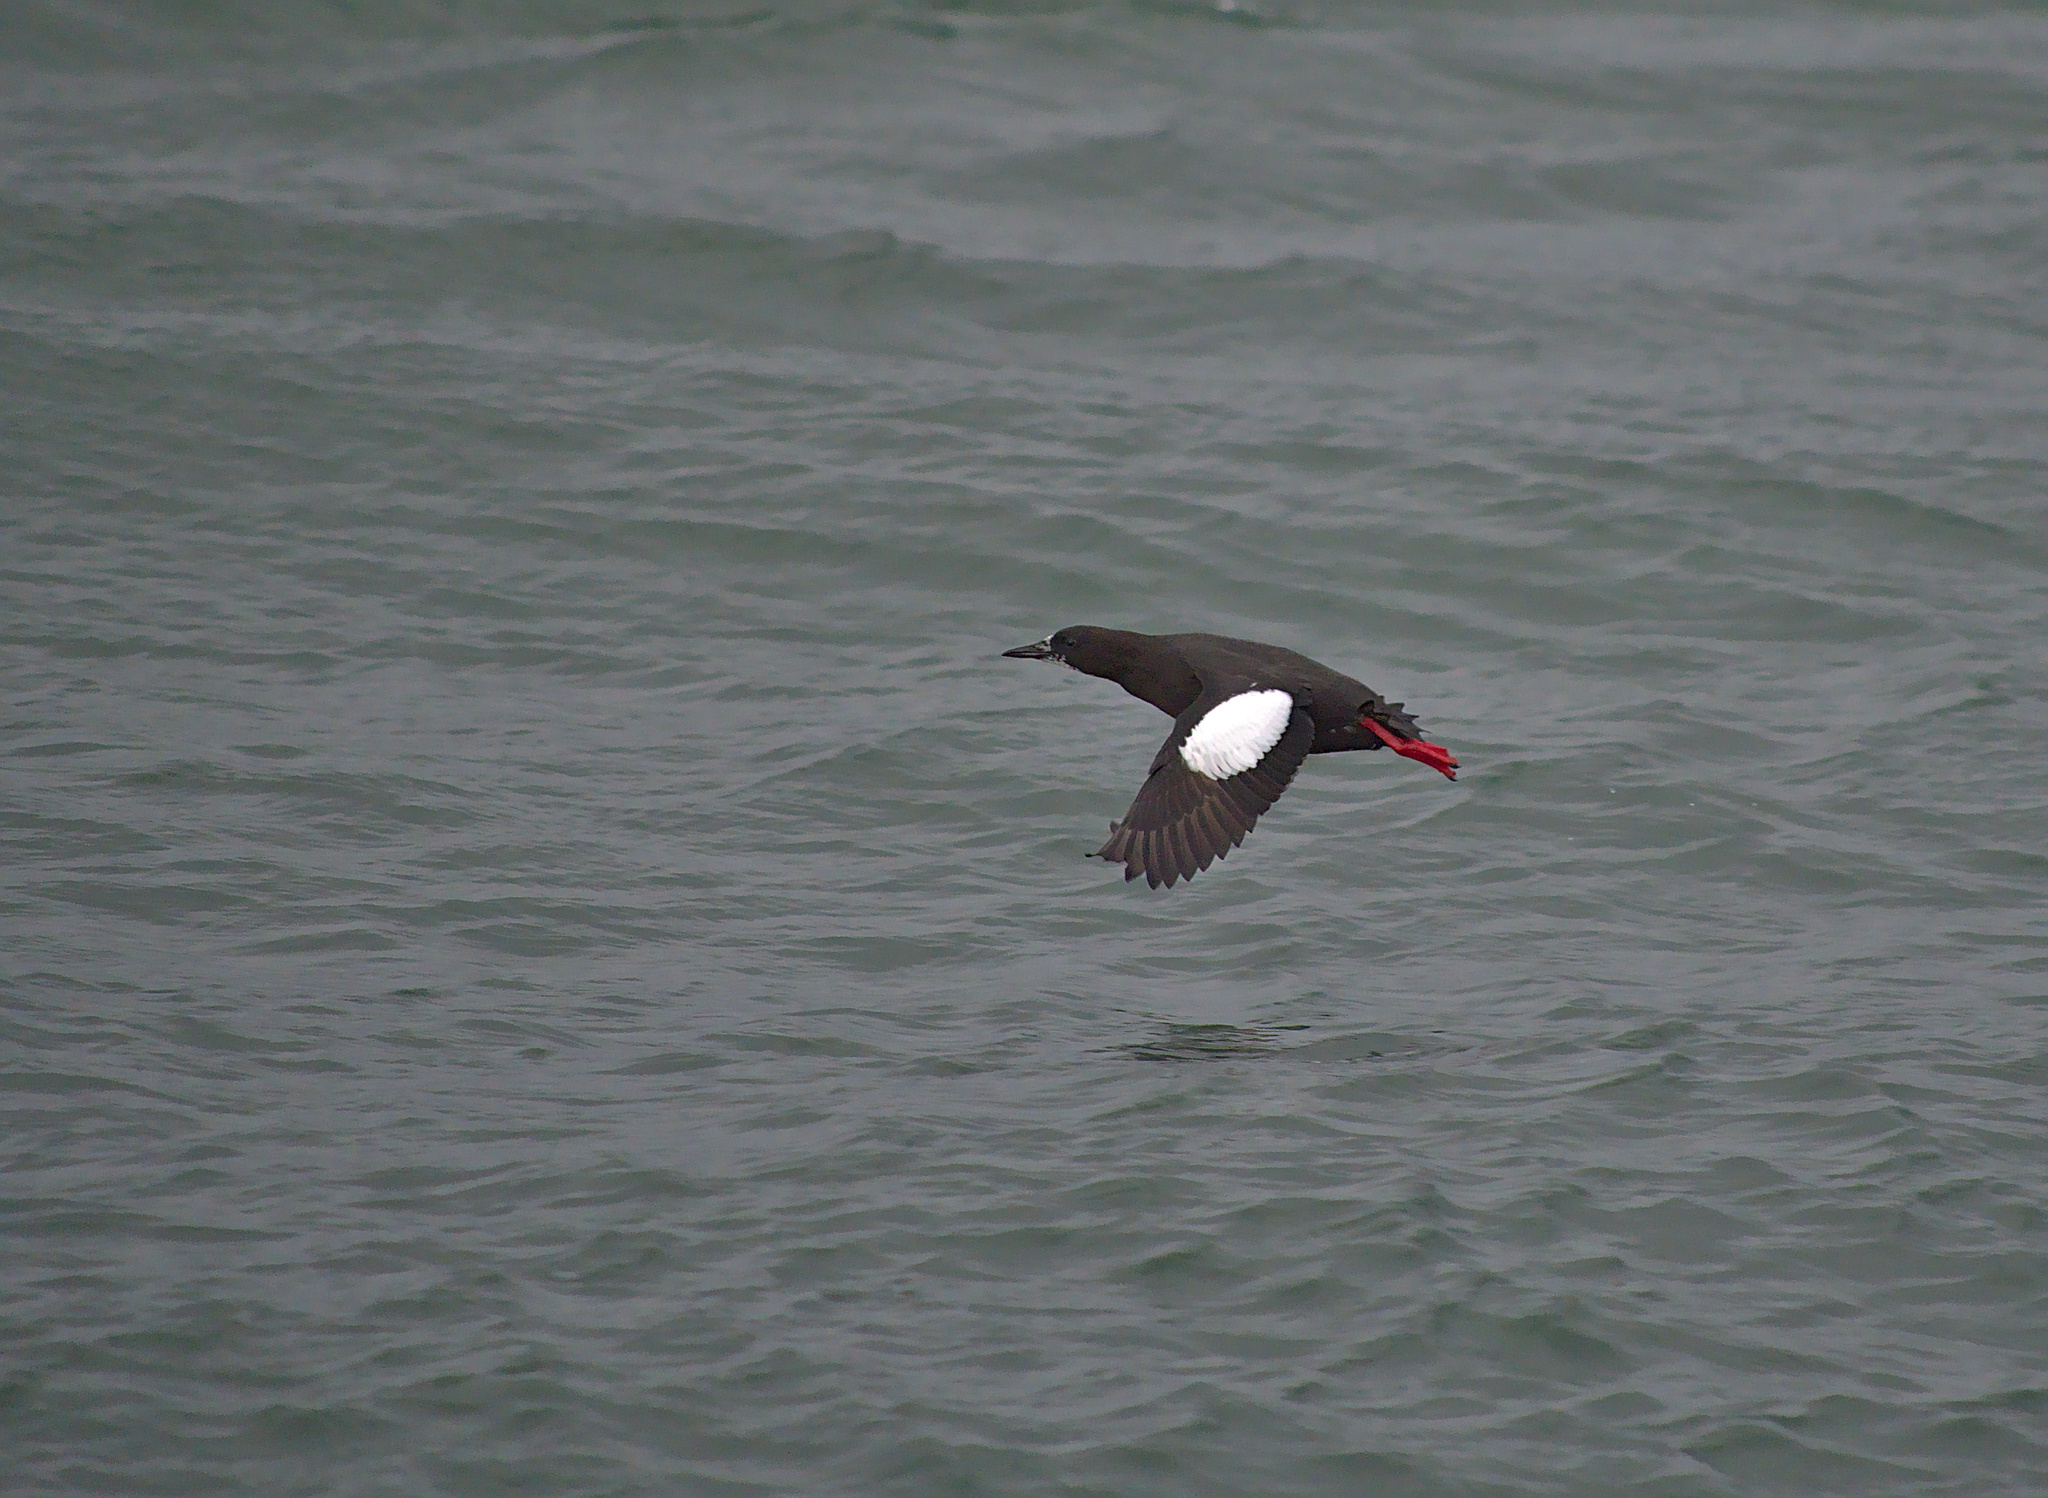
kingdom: Animalia
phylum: Chordata
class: Aves
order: Charadriiformes
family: Alcidae
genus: Cepphus
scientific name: Cepphus grylle
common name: Black guillemot
